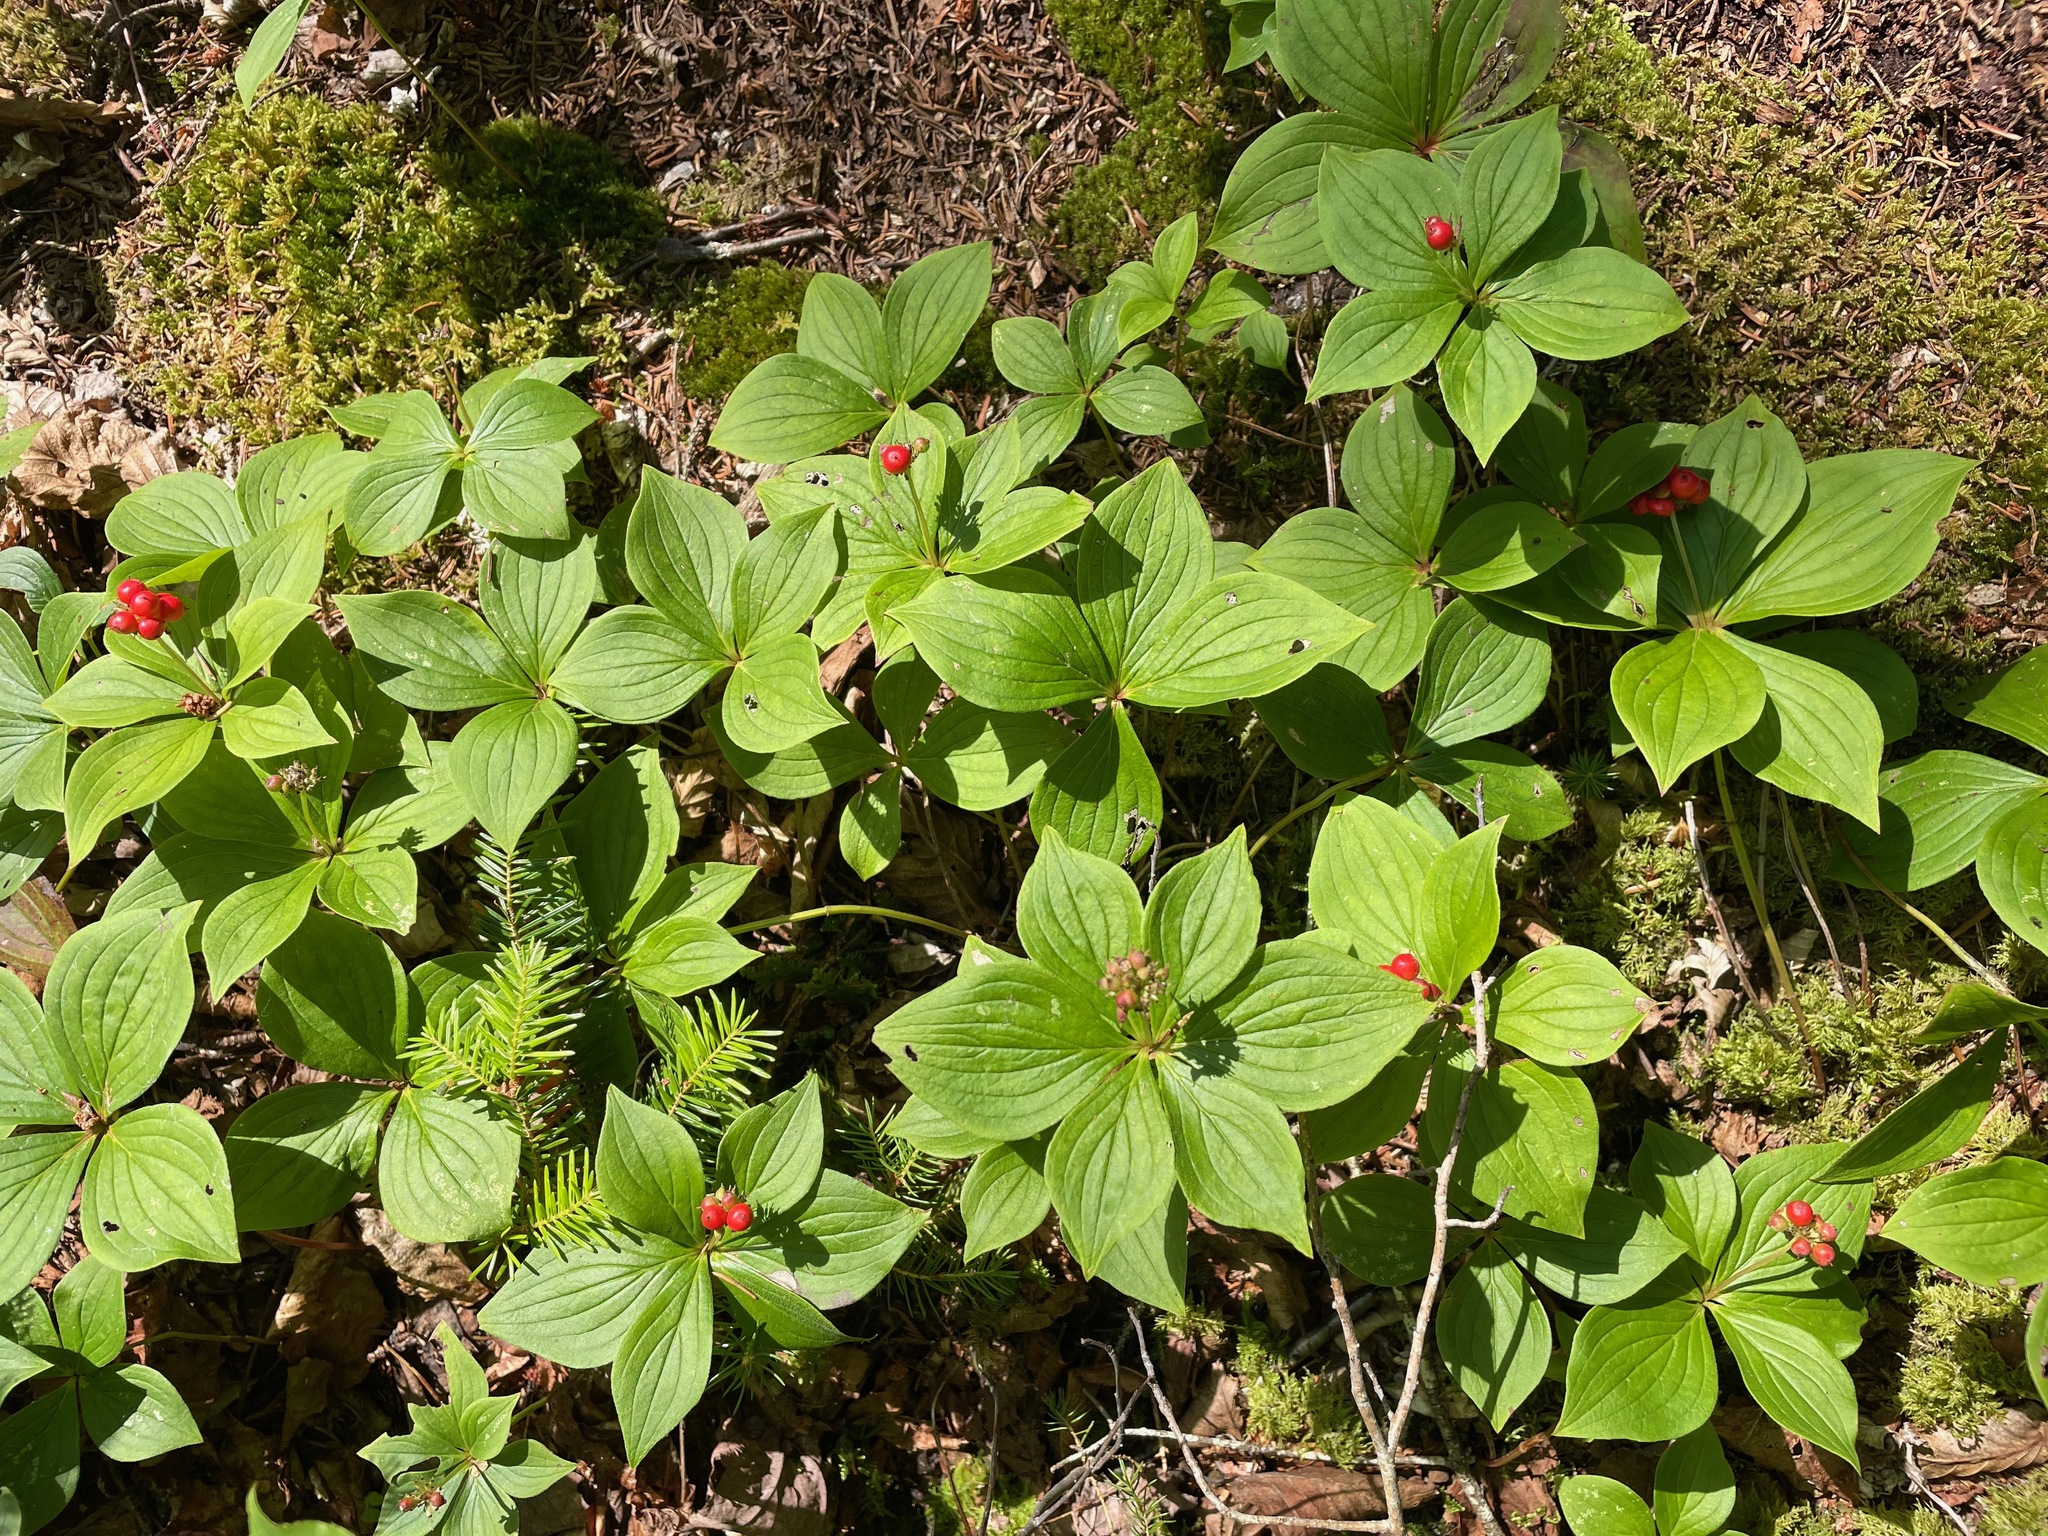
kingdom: Plantae
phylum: Tracheophyta
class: Magnoliopsida
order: Cornales
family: Cornaceae
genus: Cornus
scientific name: Cornus canadensis
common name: Creeping dogwood
